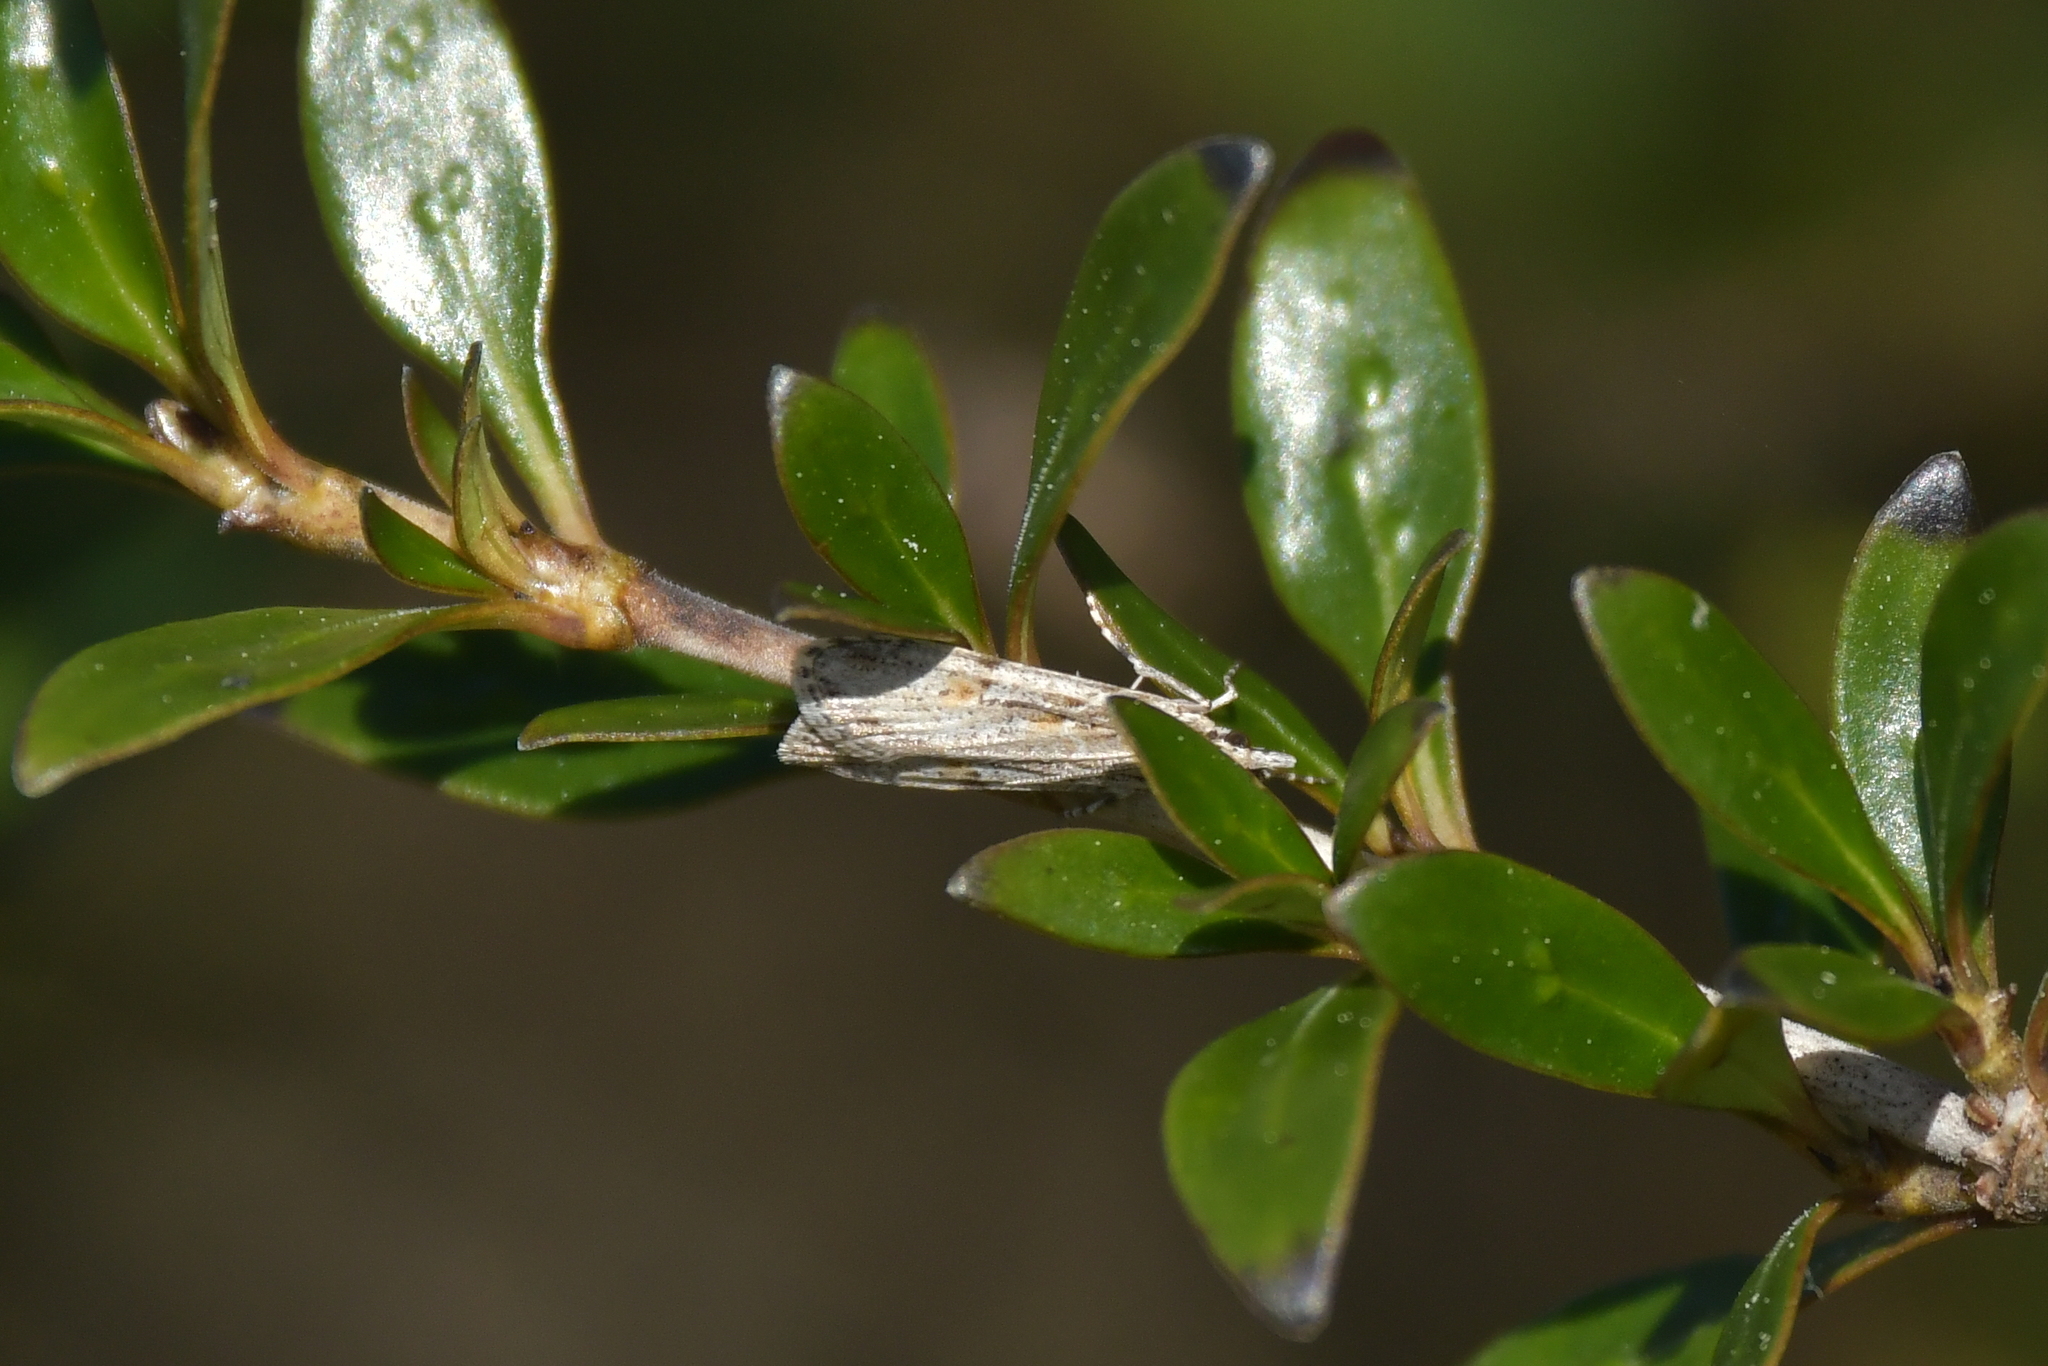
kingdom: Animalia
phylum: Arthropoda
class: Insecta
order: Lepidoptera
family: Crambidae
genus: Scoparia
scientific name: Scoparia chalicodes
